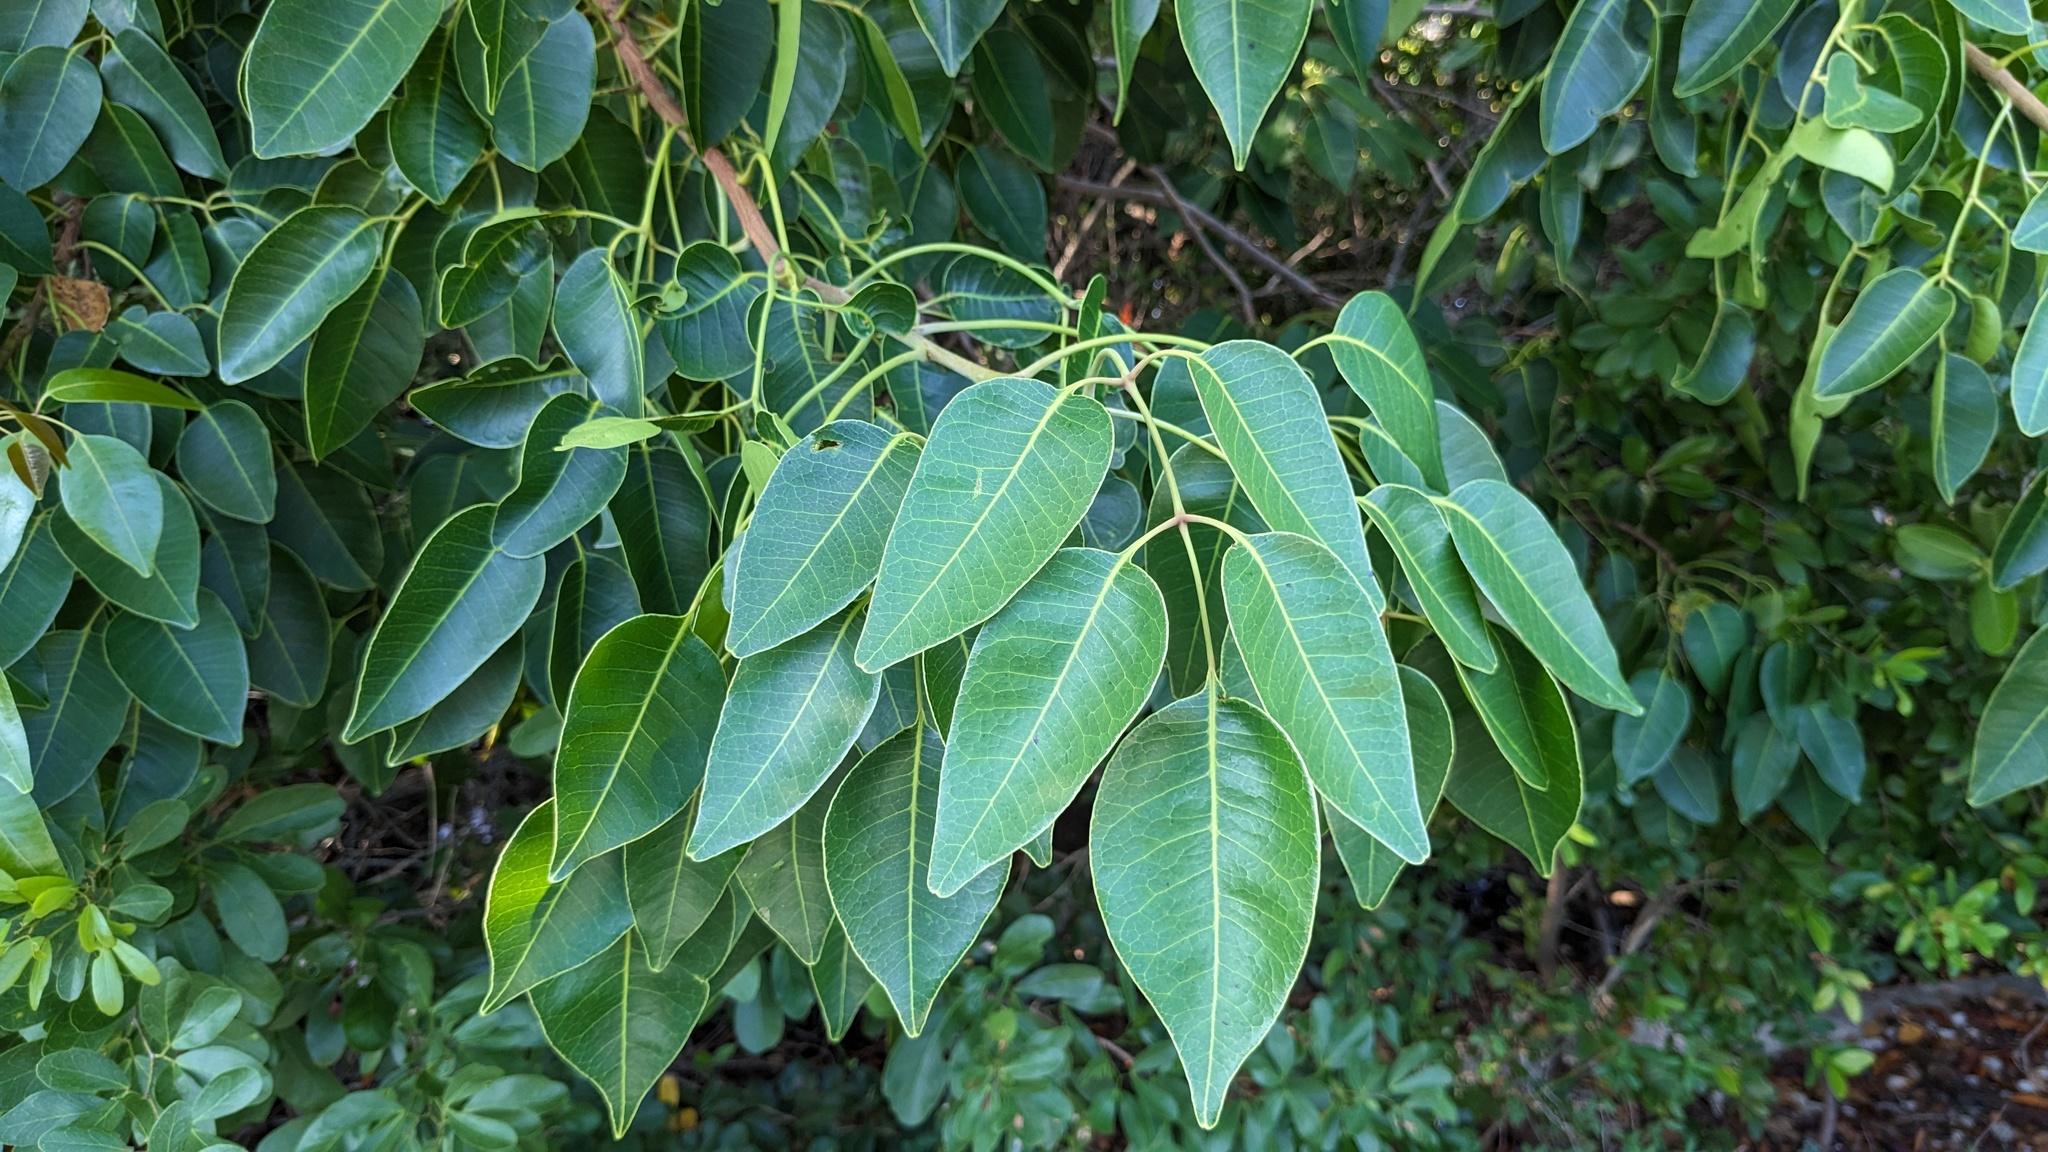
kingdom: Plantae
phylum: Tracheophyta
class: Magnoliopsida
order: Sapindales
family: Anacardiaceae
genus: Metopium
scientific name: Metopium toxiferum
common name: Florida poisontree
